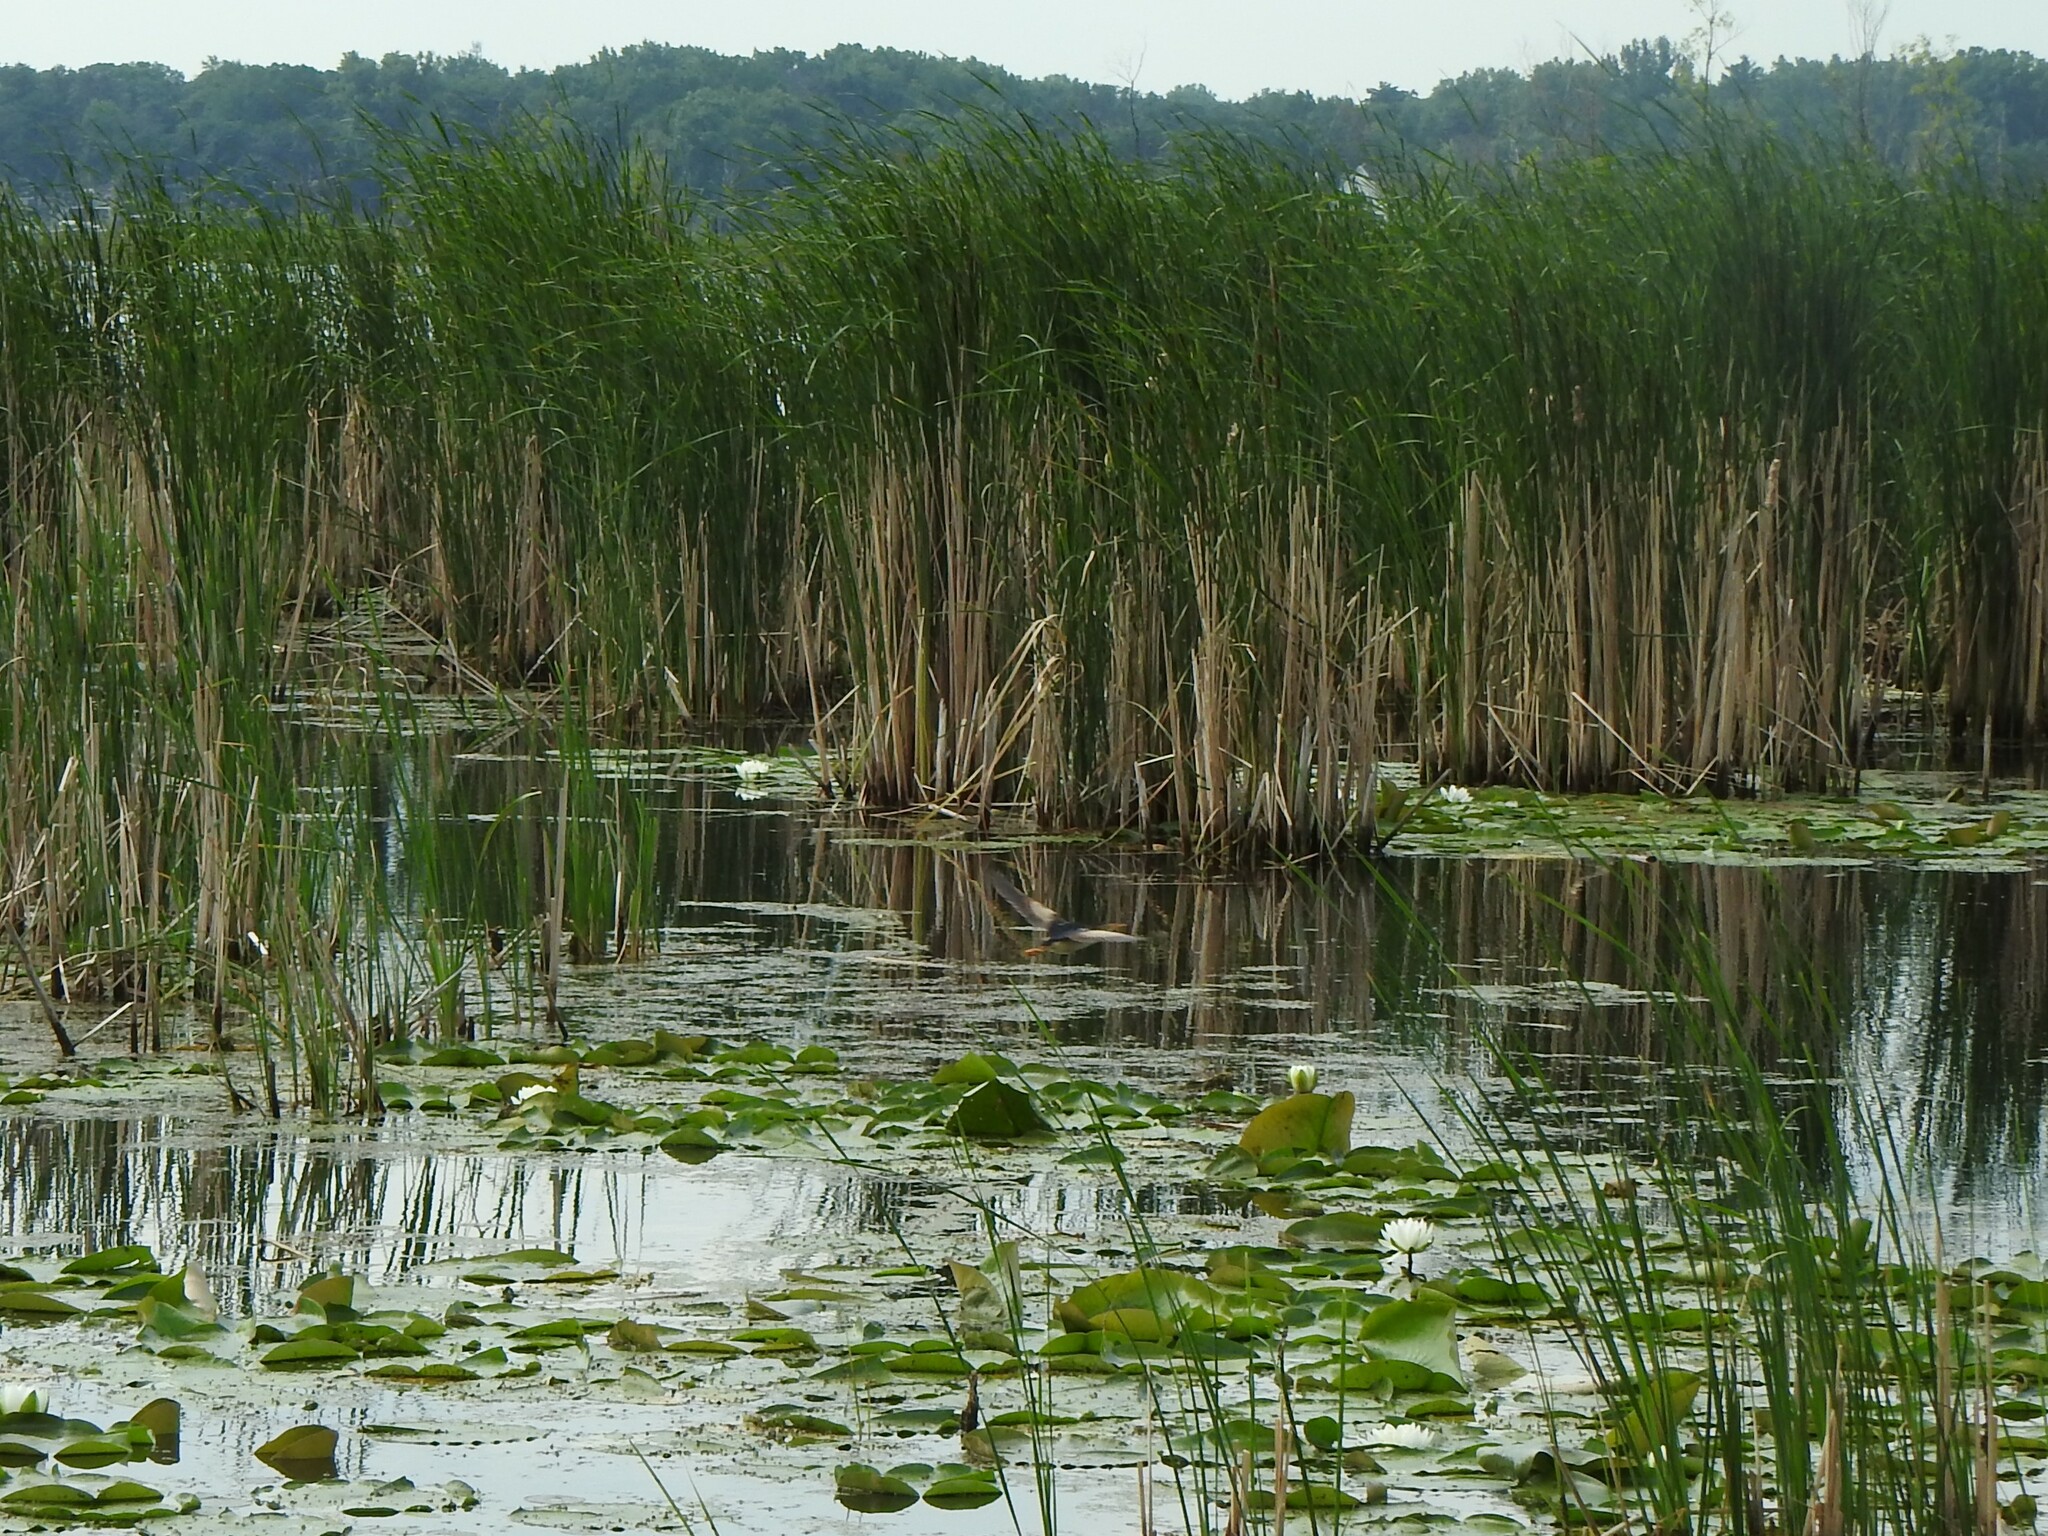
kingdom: Animalia
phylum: Chordata
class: Aves
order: Pelecaniformes
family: Ardeidae
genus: Ixobrychus
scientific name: Ixobrychus exilis
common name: Least bittern
